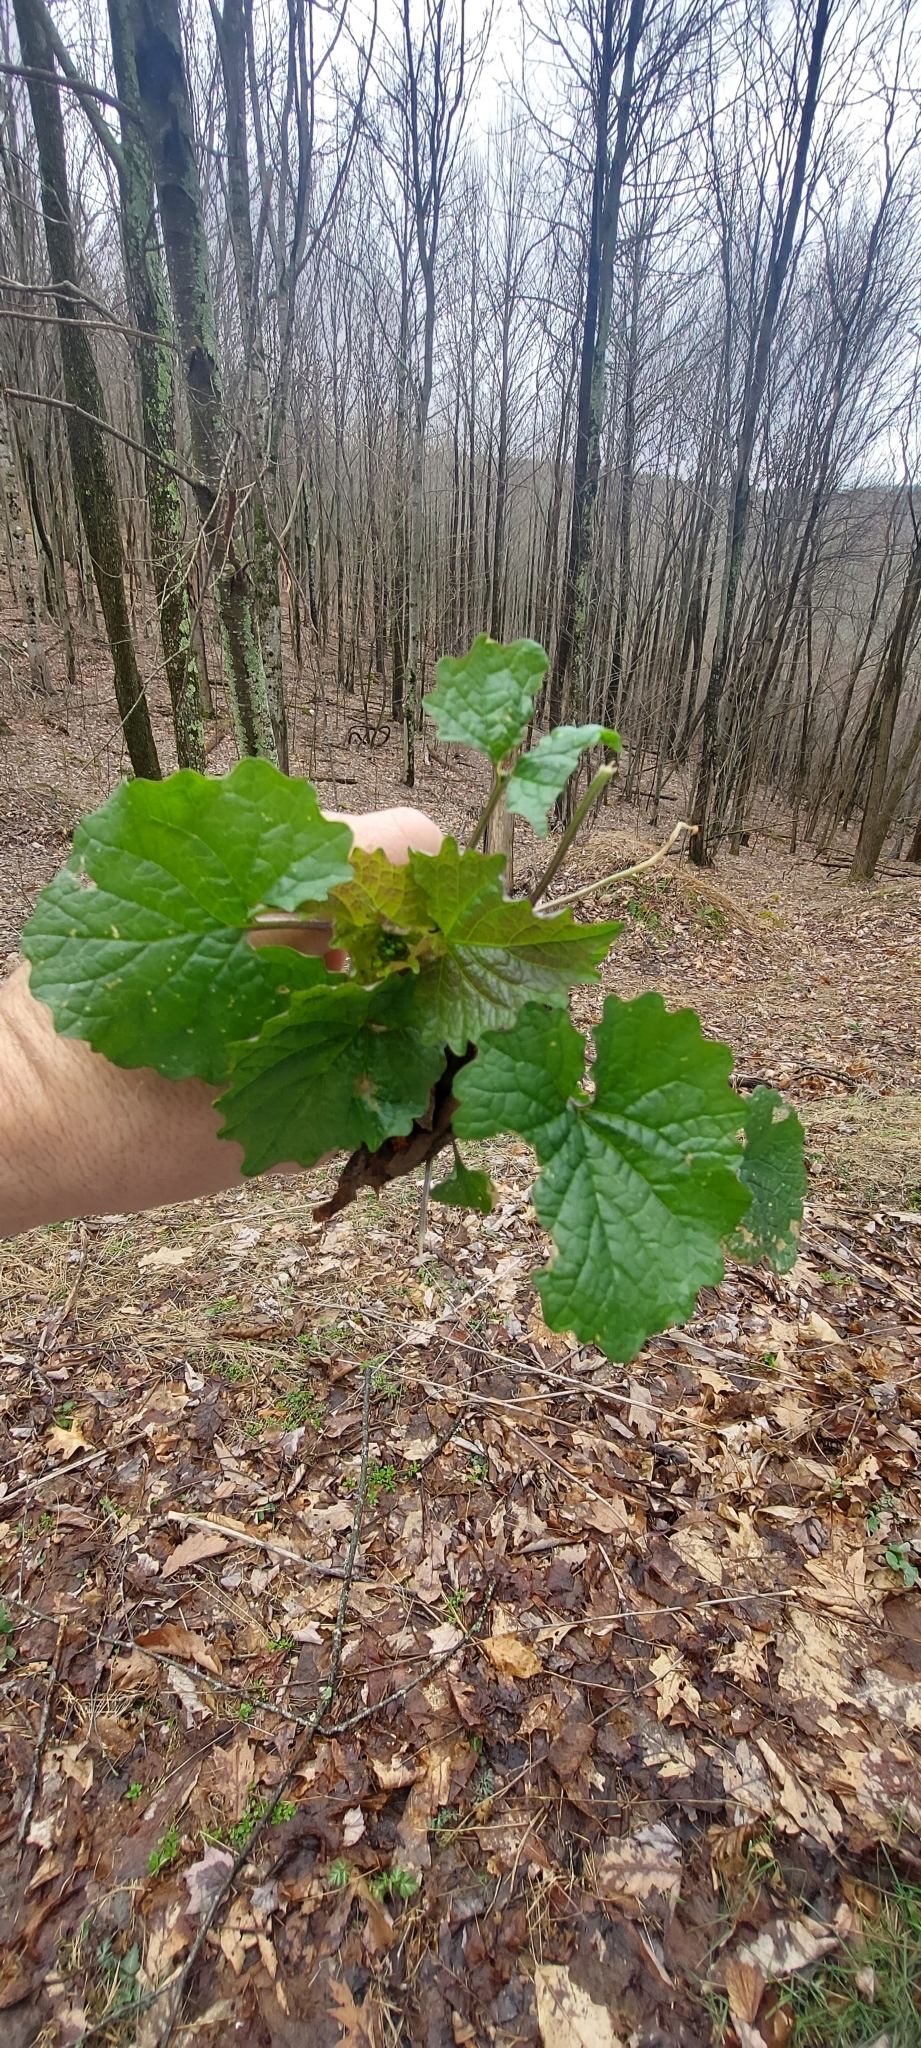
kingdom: Plantae
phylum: Tracheophyta
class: Magnoliopsida
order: Brassicales
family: Brassicaceae
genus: Alliaria
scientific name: Alliaria petiolata
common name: Garlic mustard
